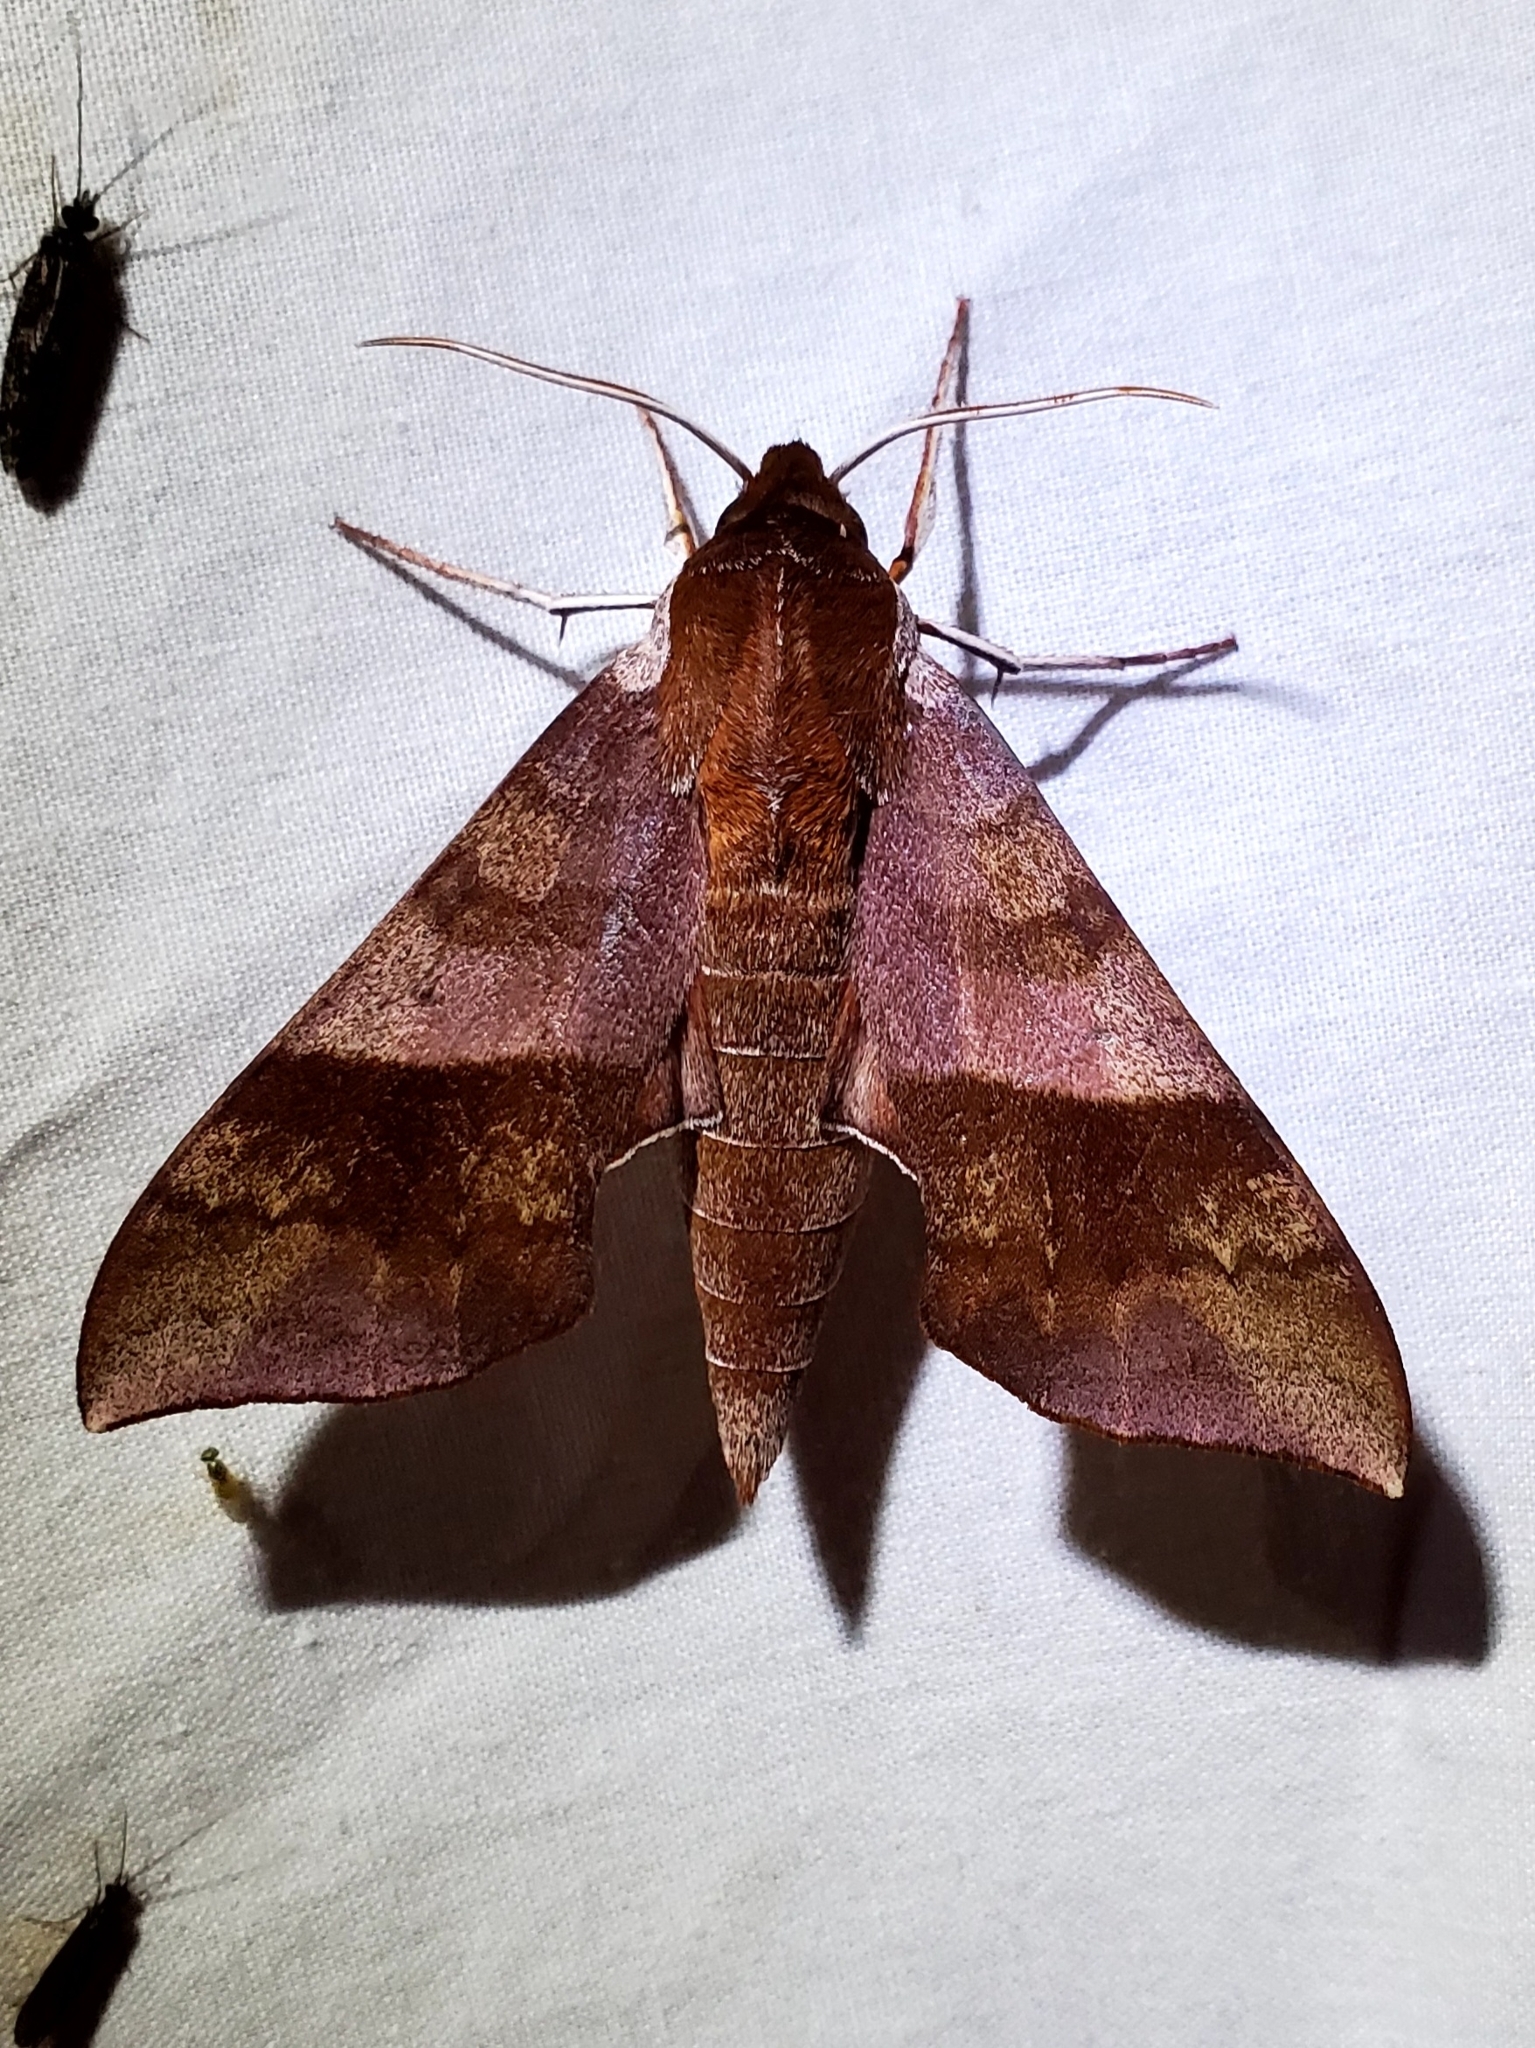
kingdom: Animalia
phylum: Arthropoda
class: Insecta
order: Lepidoptera
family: Sphingidae
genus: Darapsa
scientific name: Darapsa choerilus
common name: Azalea sphinx
